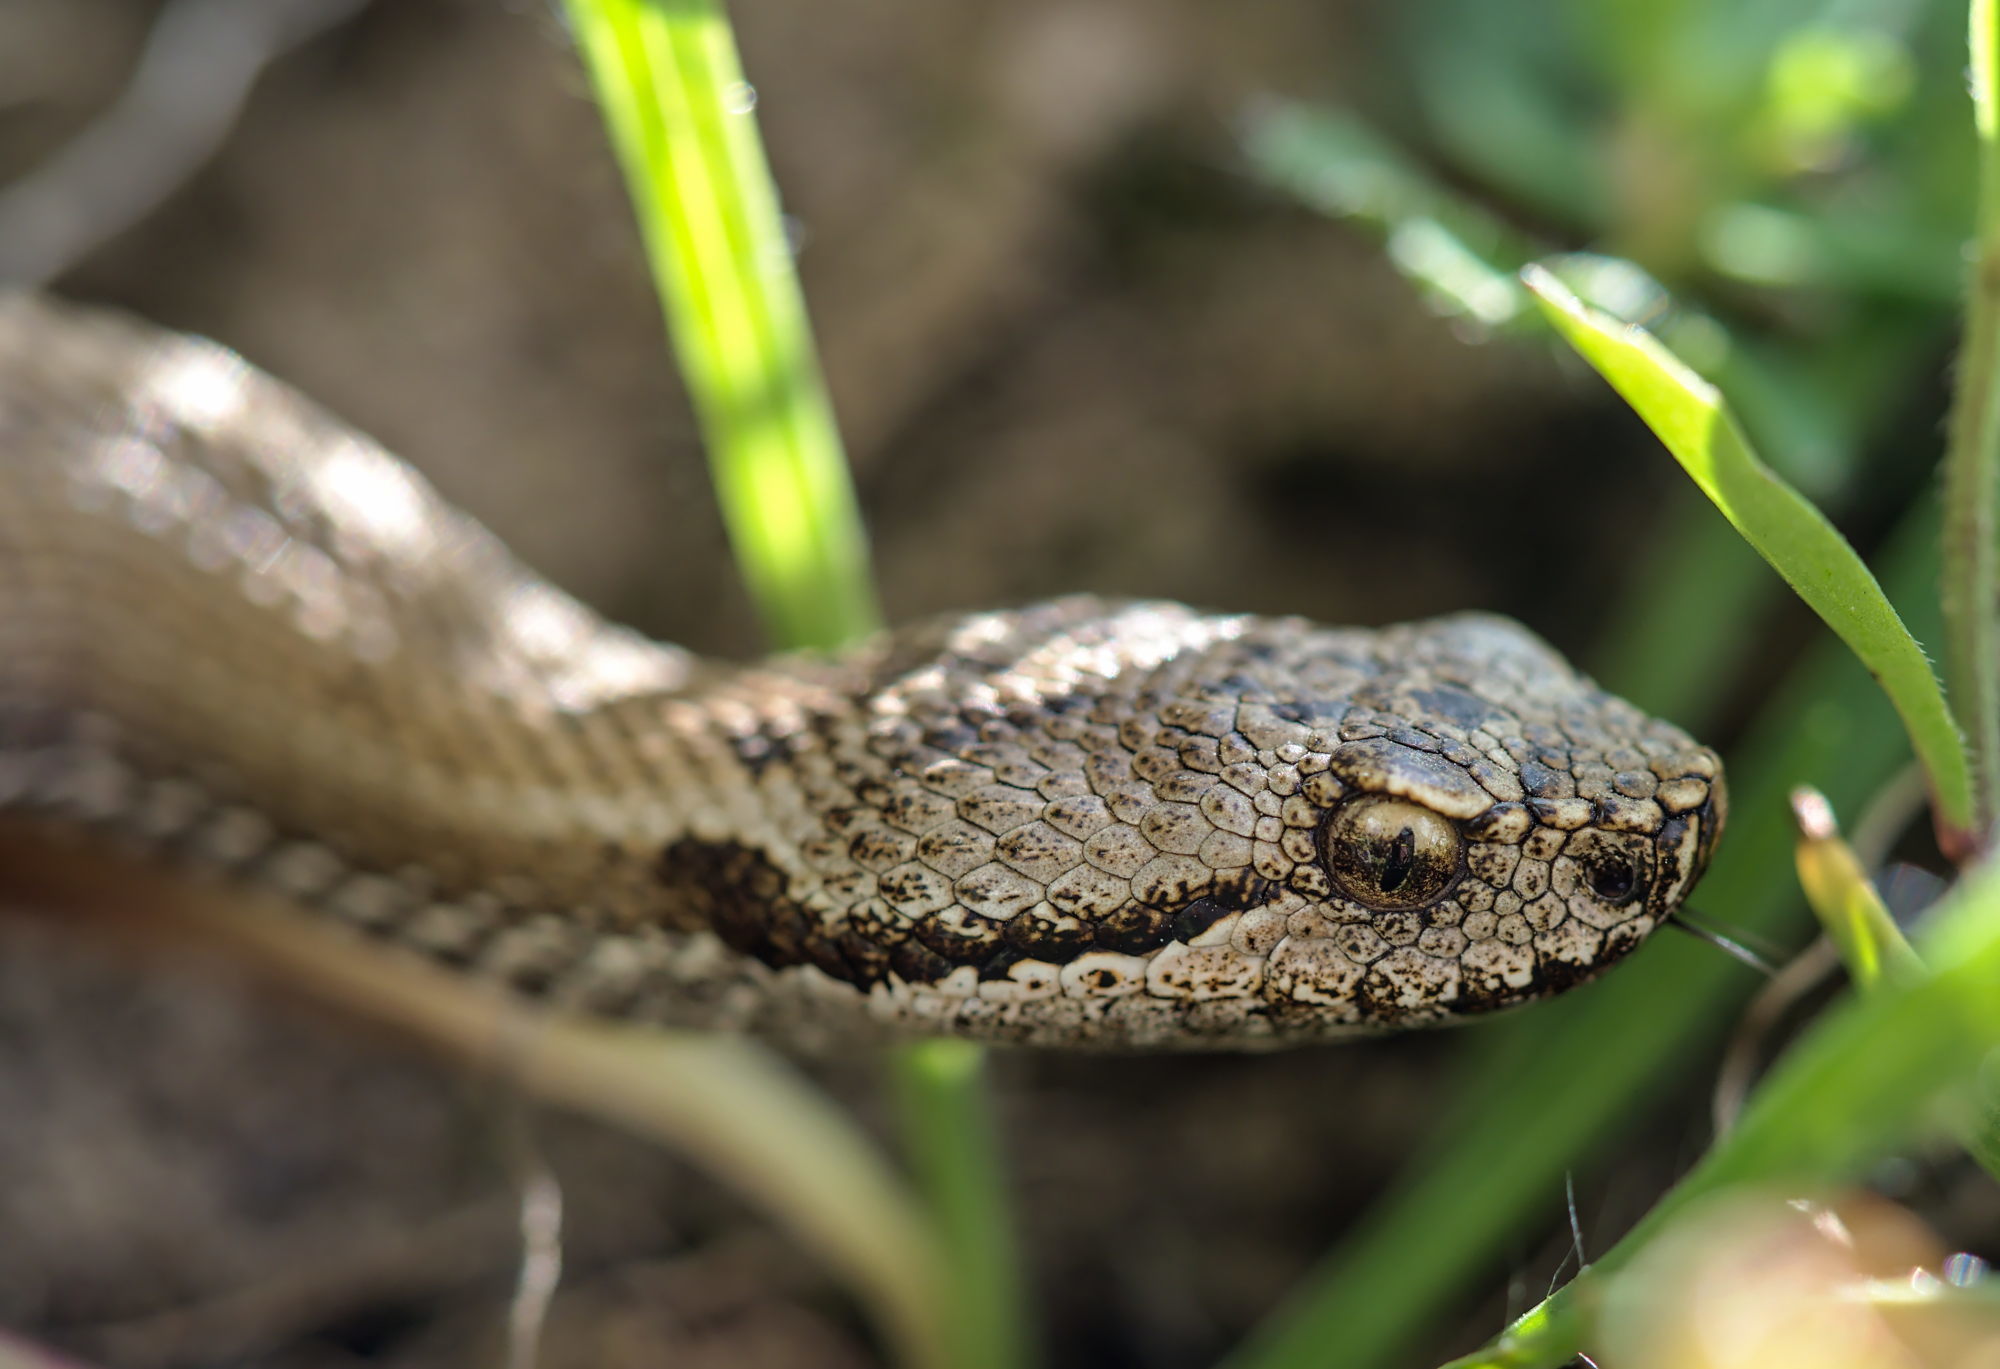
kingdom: Animalia
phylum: Chordata
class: Squamata
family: Viperidae
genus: Vipera
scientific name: Vipera aspis
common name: Asp viper
